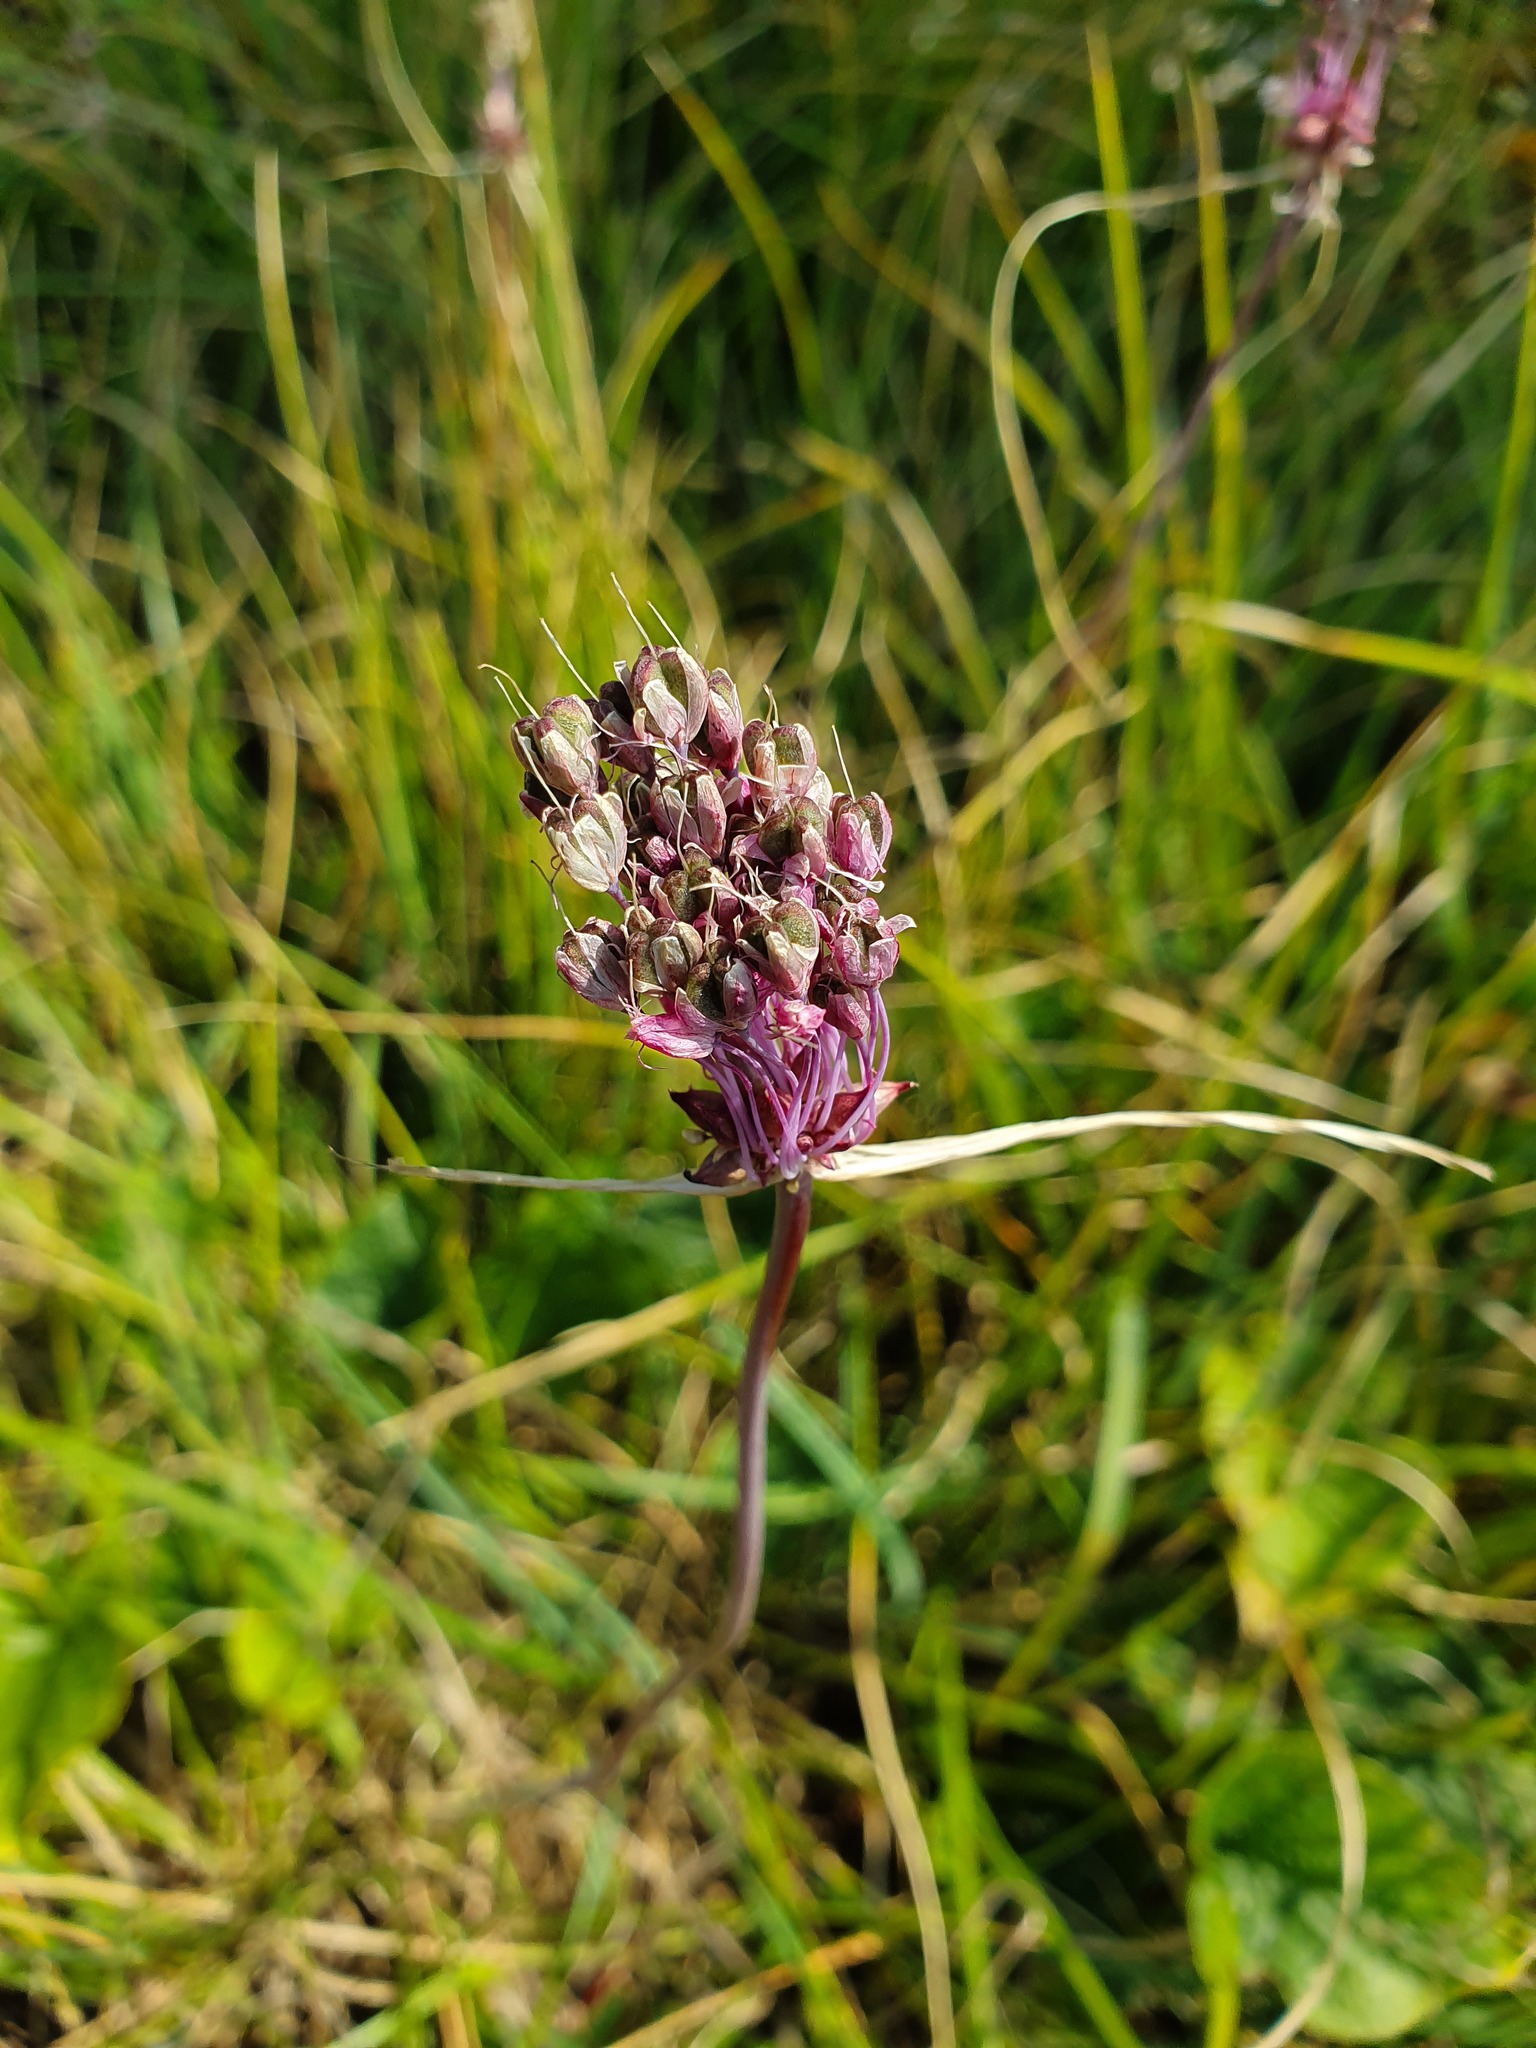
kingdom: Plantae
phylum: Tracheophyta
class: Liliopsida
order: Asparagales
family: Amaryllidaceae
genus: Allium
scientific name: Allium carinatum
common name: Keeled garlic
